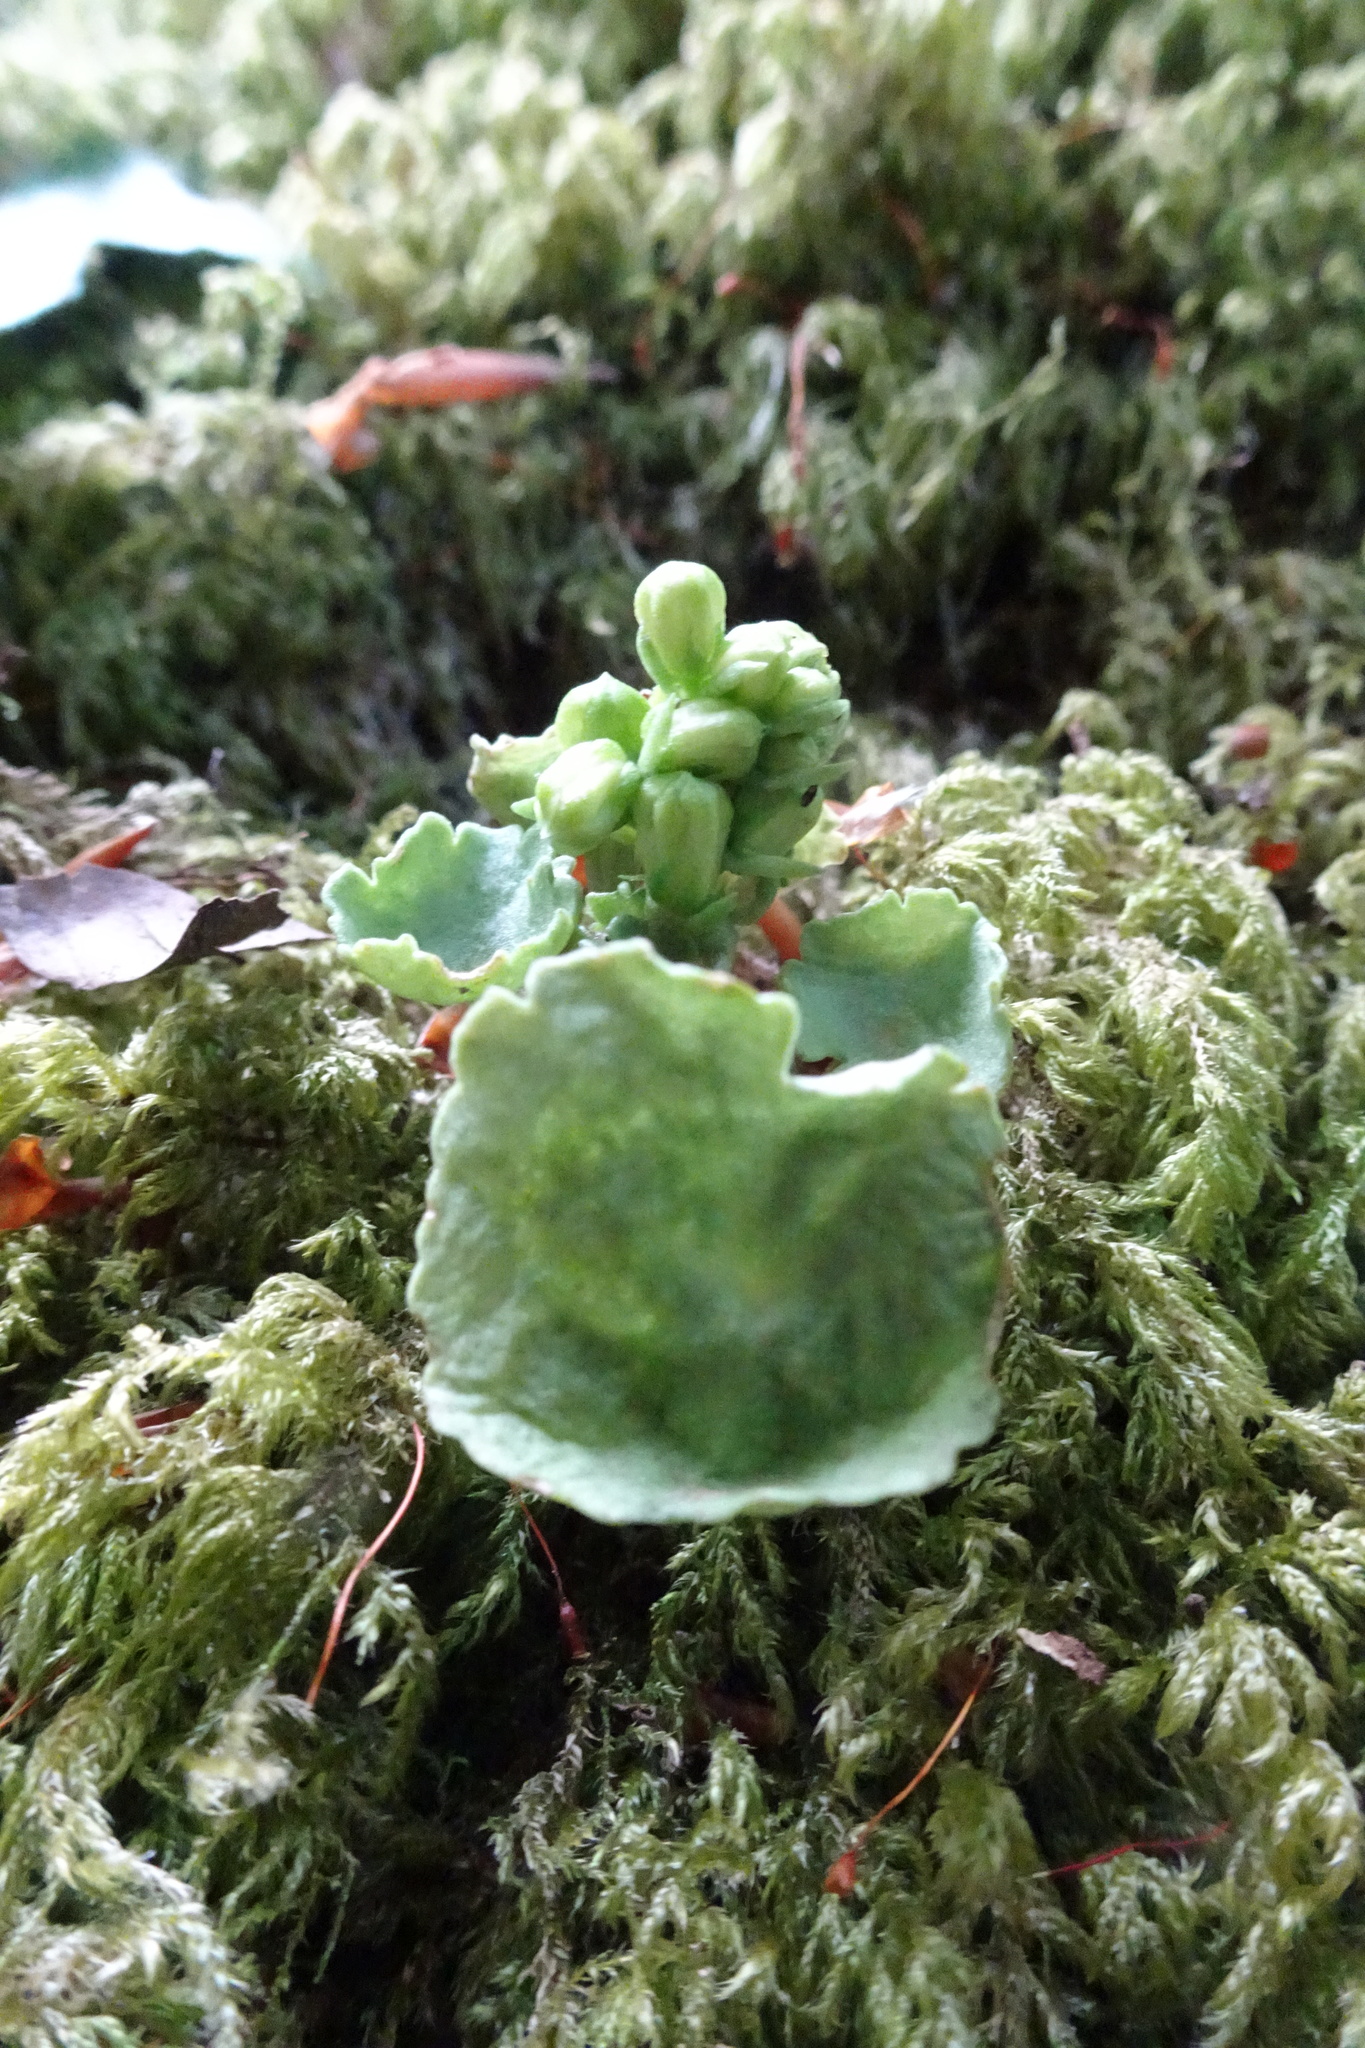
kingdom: Plantae
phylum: Tracheophyta
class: Magnoliopsida
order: Saxifragales
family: Crassulaceae
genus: Umbilicus
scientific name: Umbilicus rupestris
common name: Navelwort
